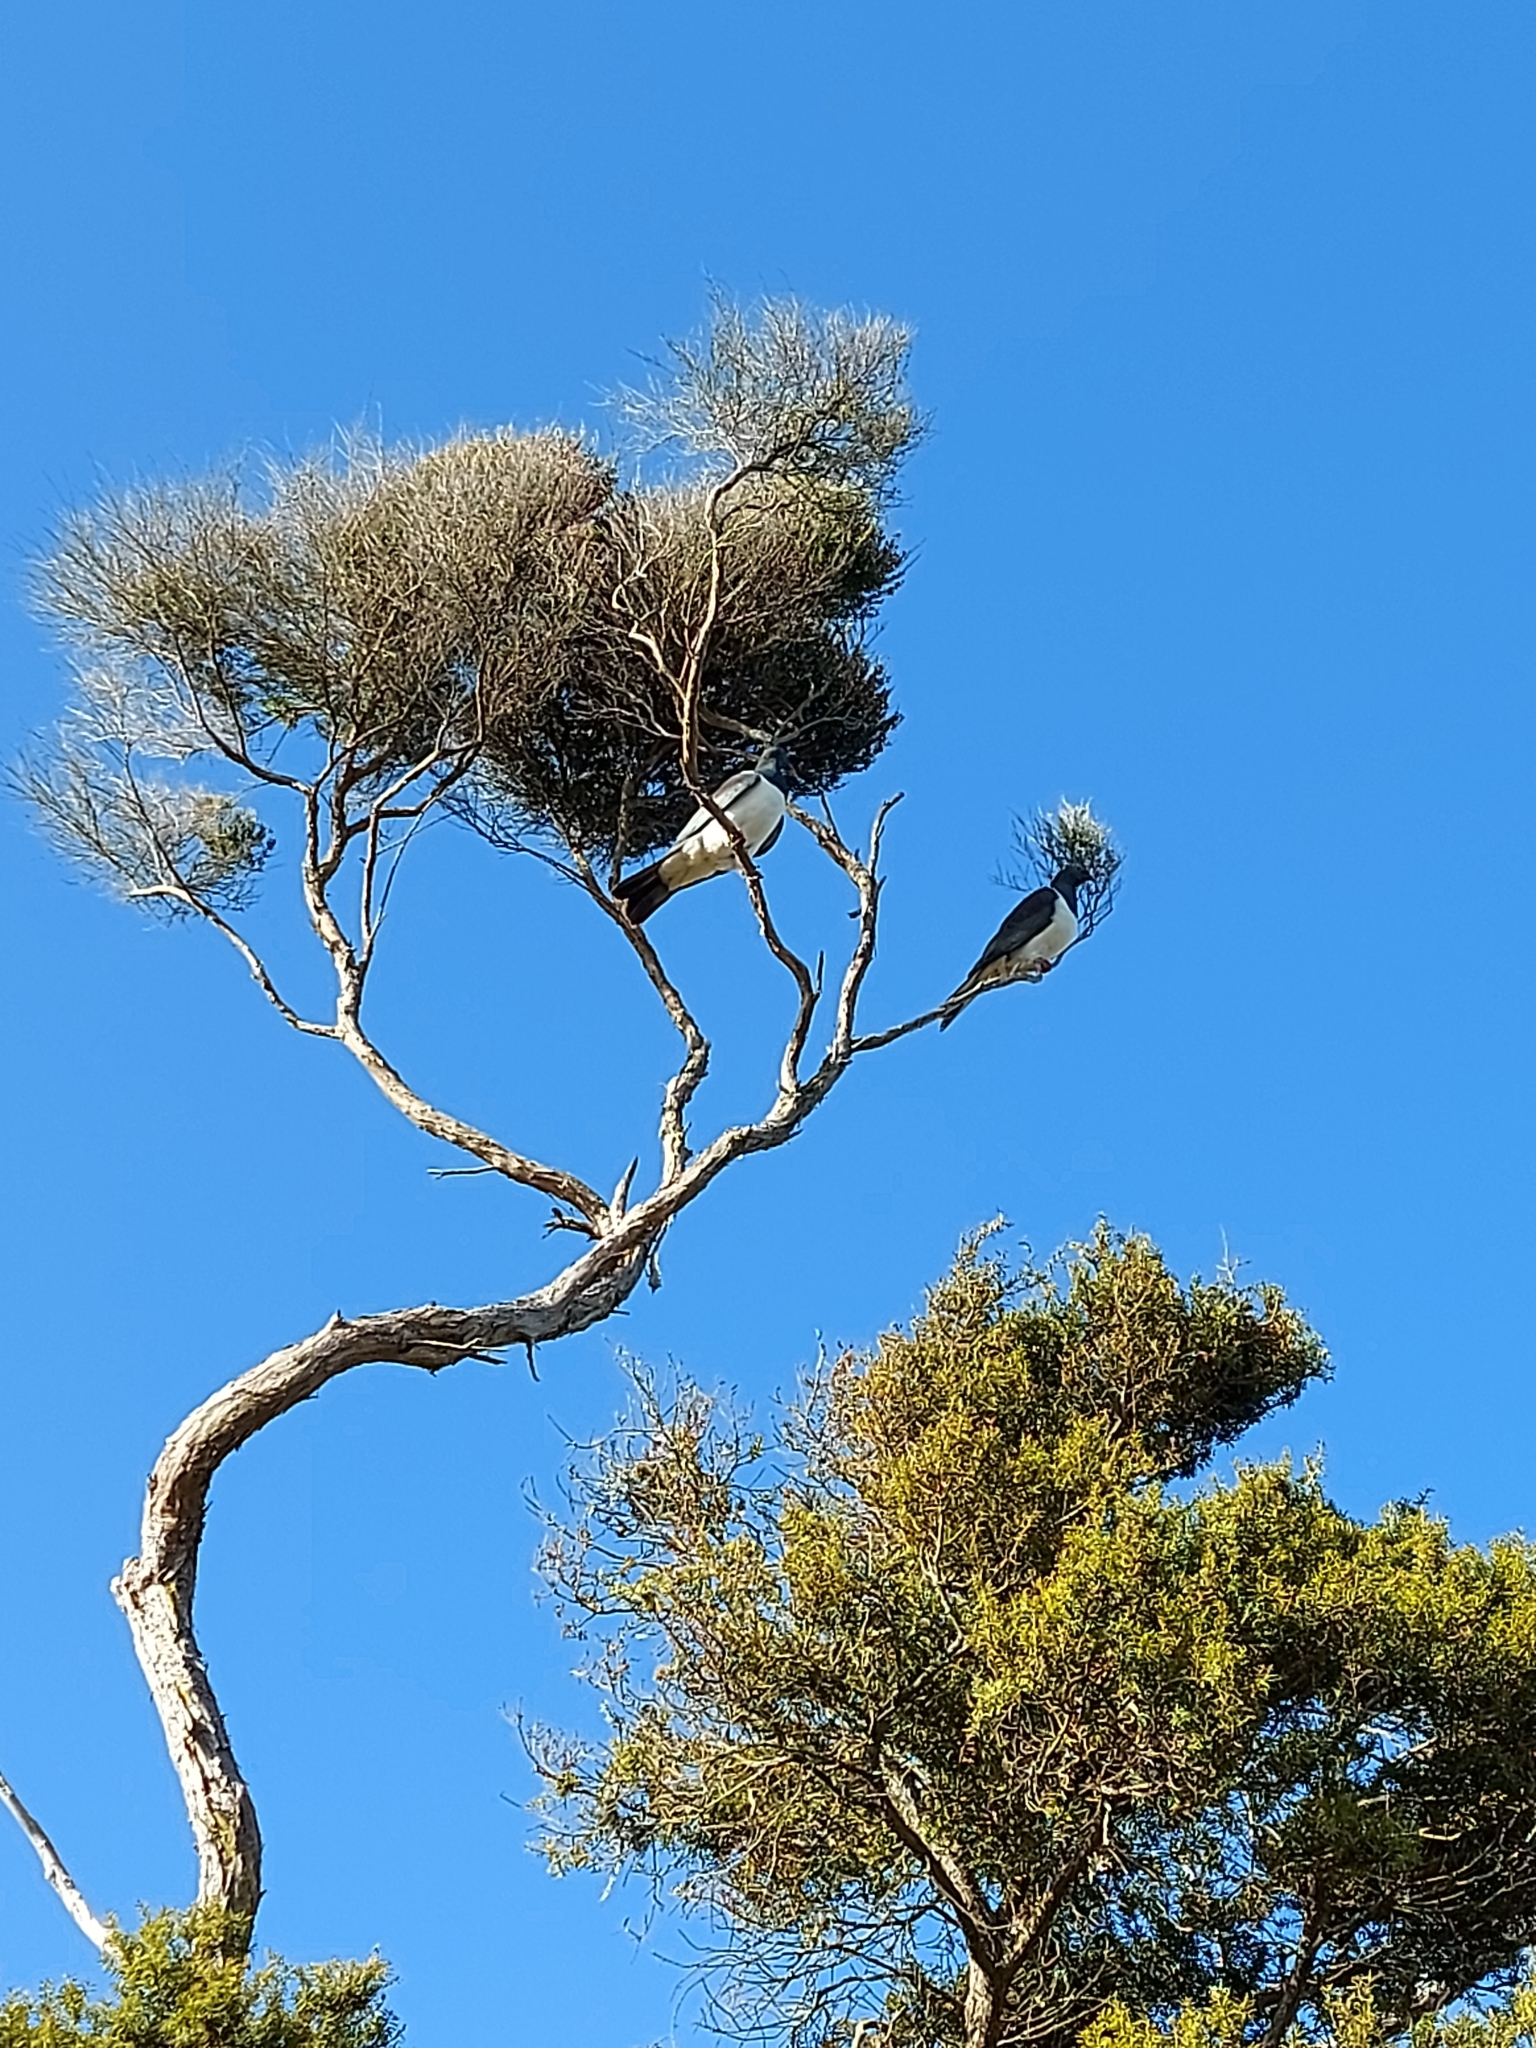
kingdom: Animalia
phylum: Chordata
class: Aves
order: Columbiformes
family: Columbidae
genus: Hemiphaga
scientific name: Hemiphaga novaeseelandiae
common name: New zealand pigeon
